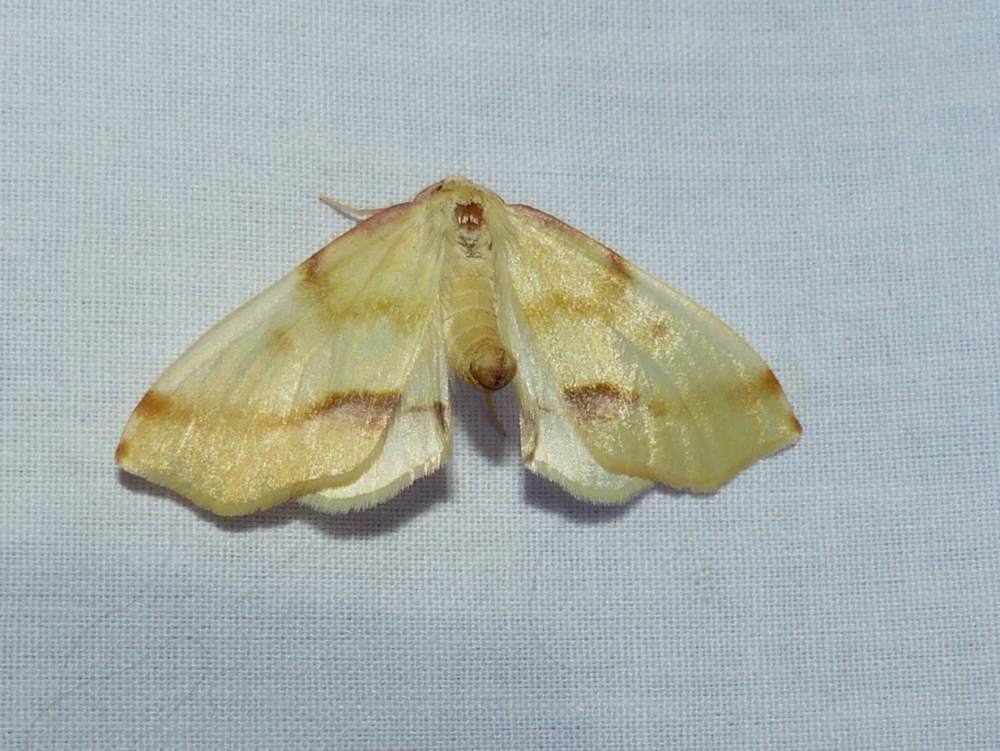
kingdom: Animalia
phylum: Arthropoda
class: Insecta
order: Lepidoptera
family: Geometridae
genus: Plagodis
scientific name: Plagodis serinaria
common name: Lemon plagodis
